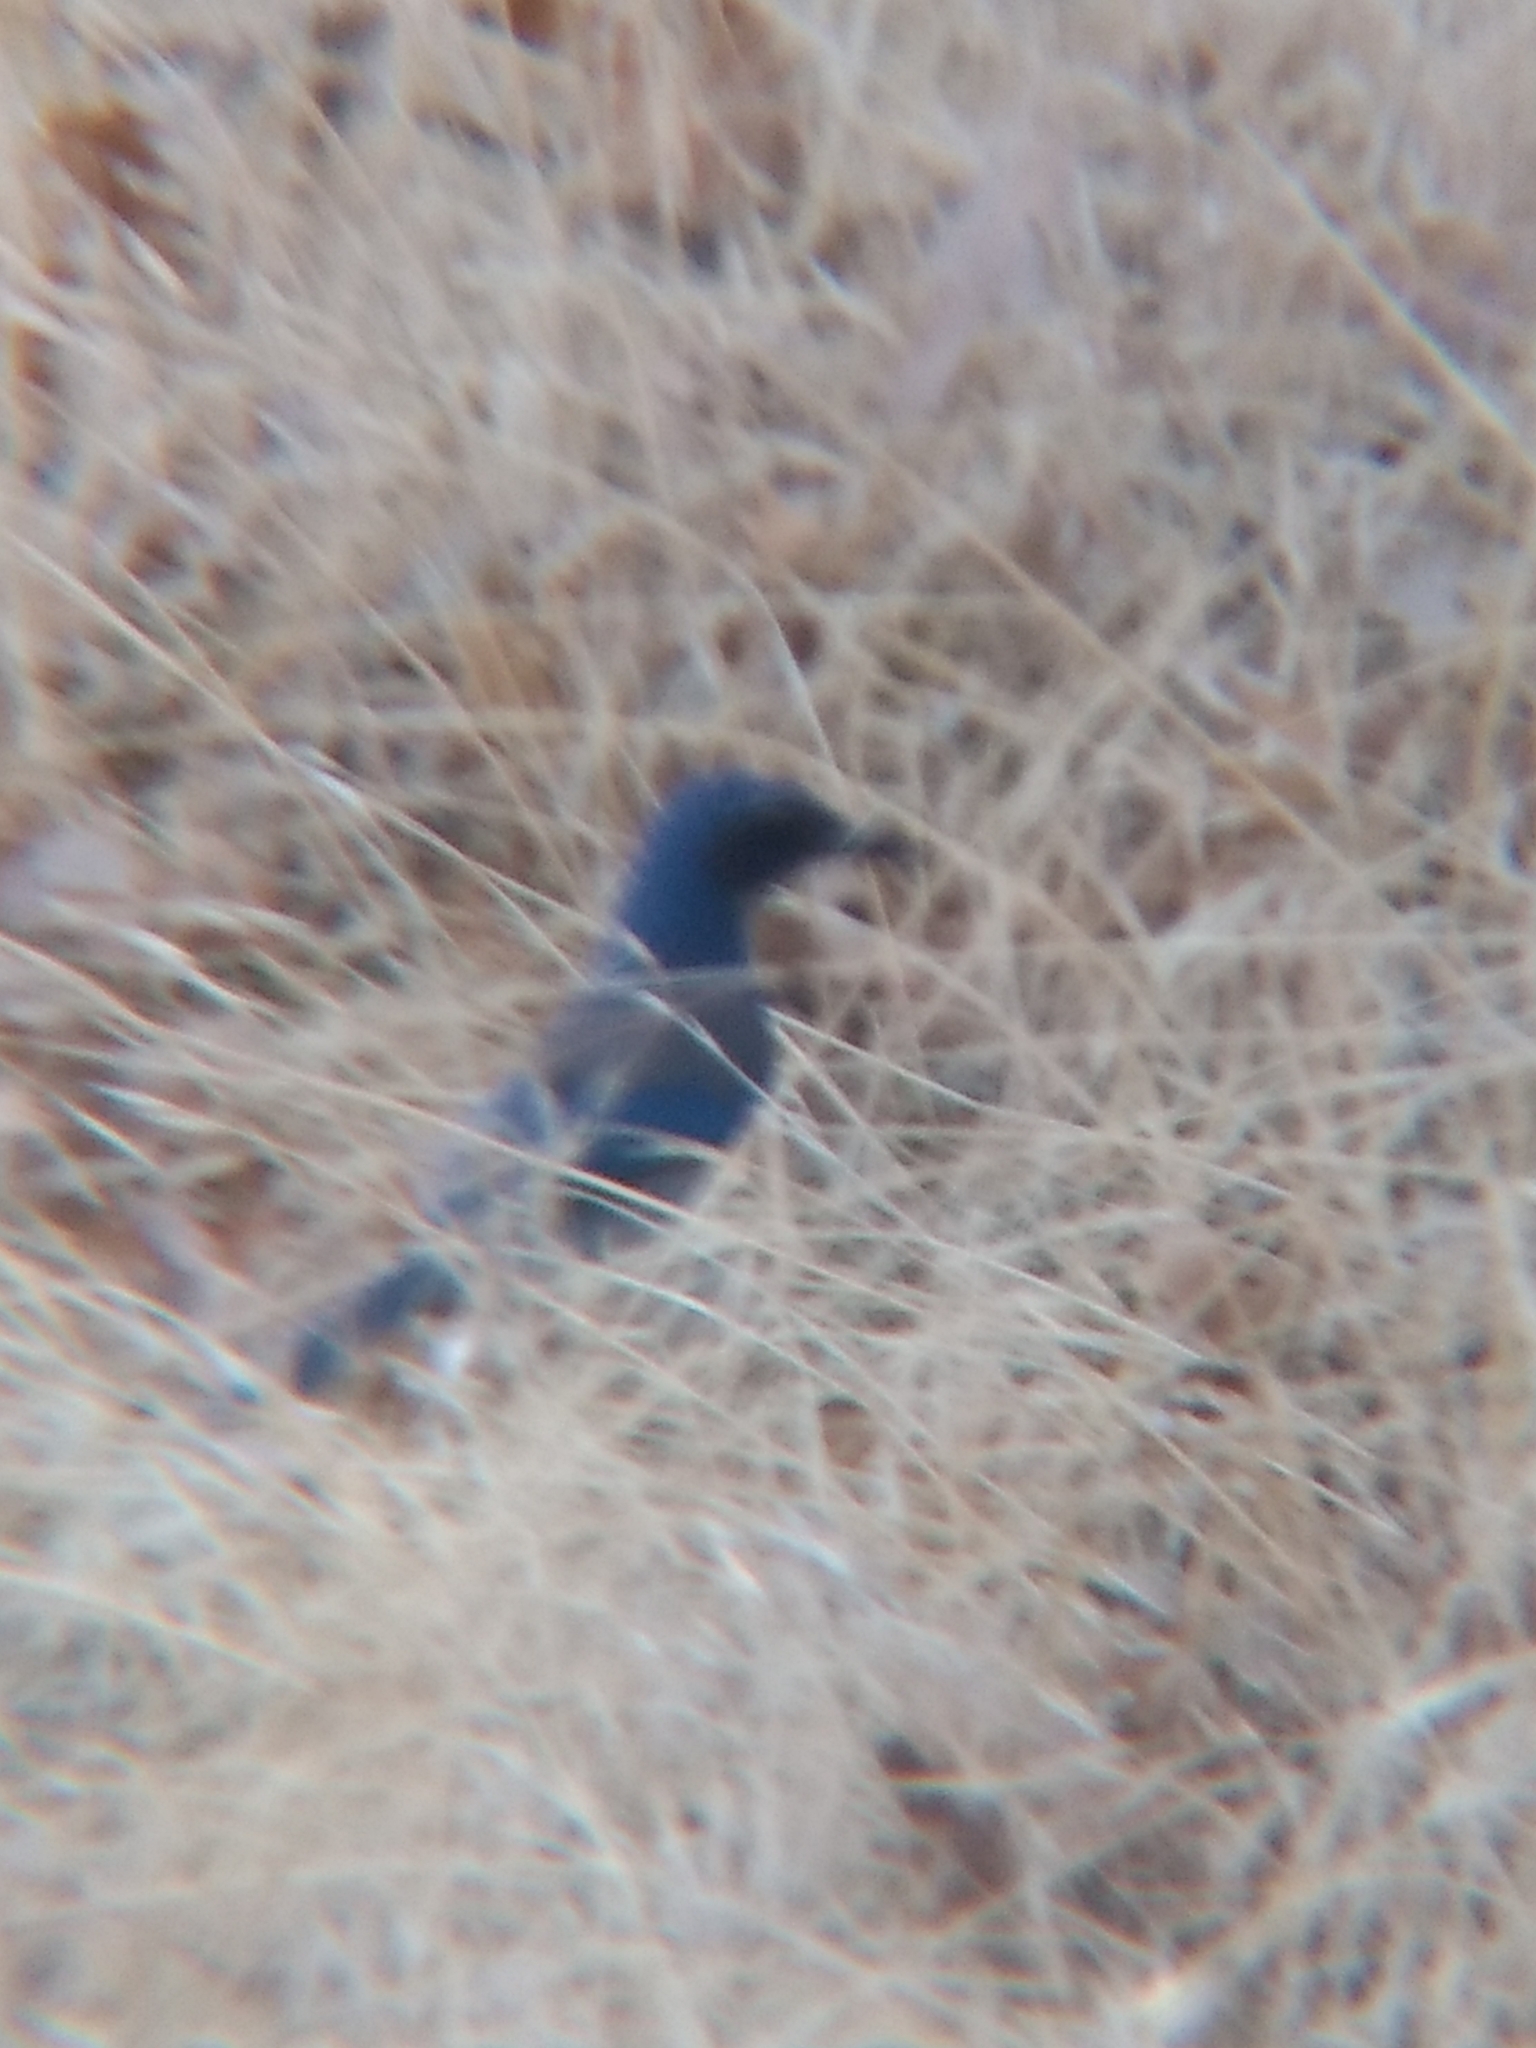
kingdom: Animalia
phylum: Chordata
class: Aves
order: Passeriformes
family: Corvidae
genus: Aphelocoma
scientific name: Aphelocoma californica
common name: California scrub-jay
